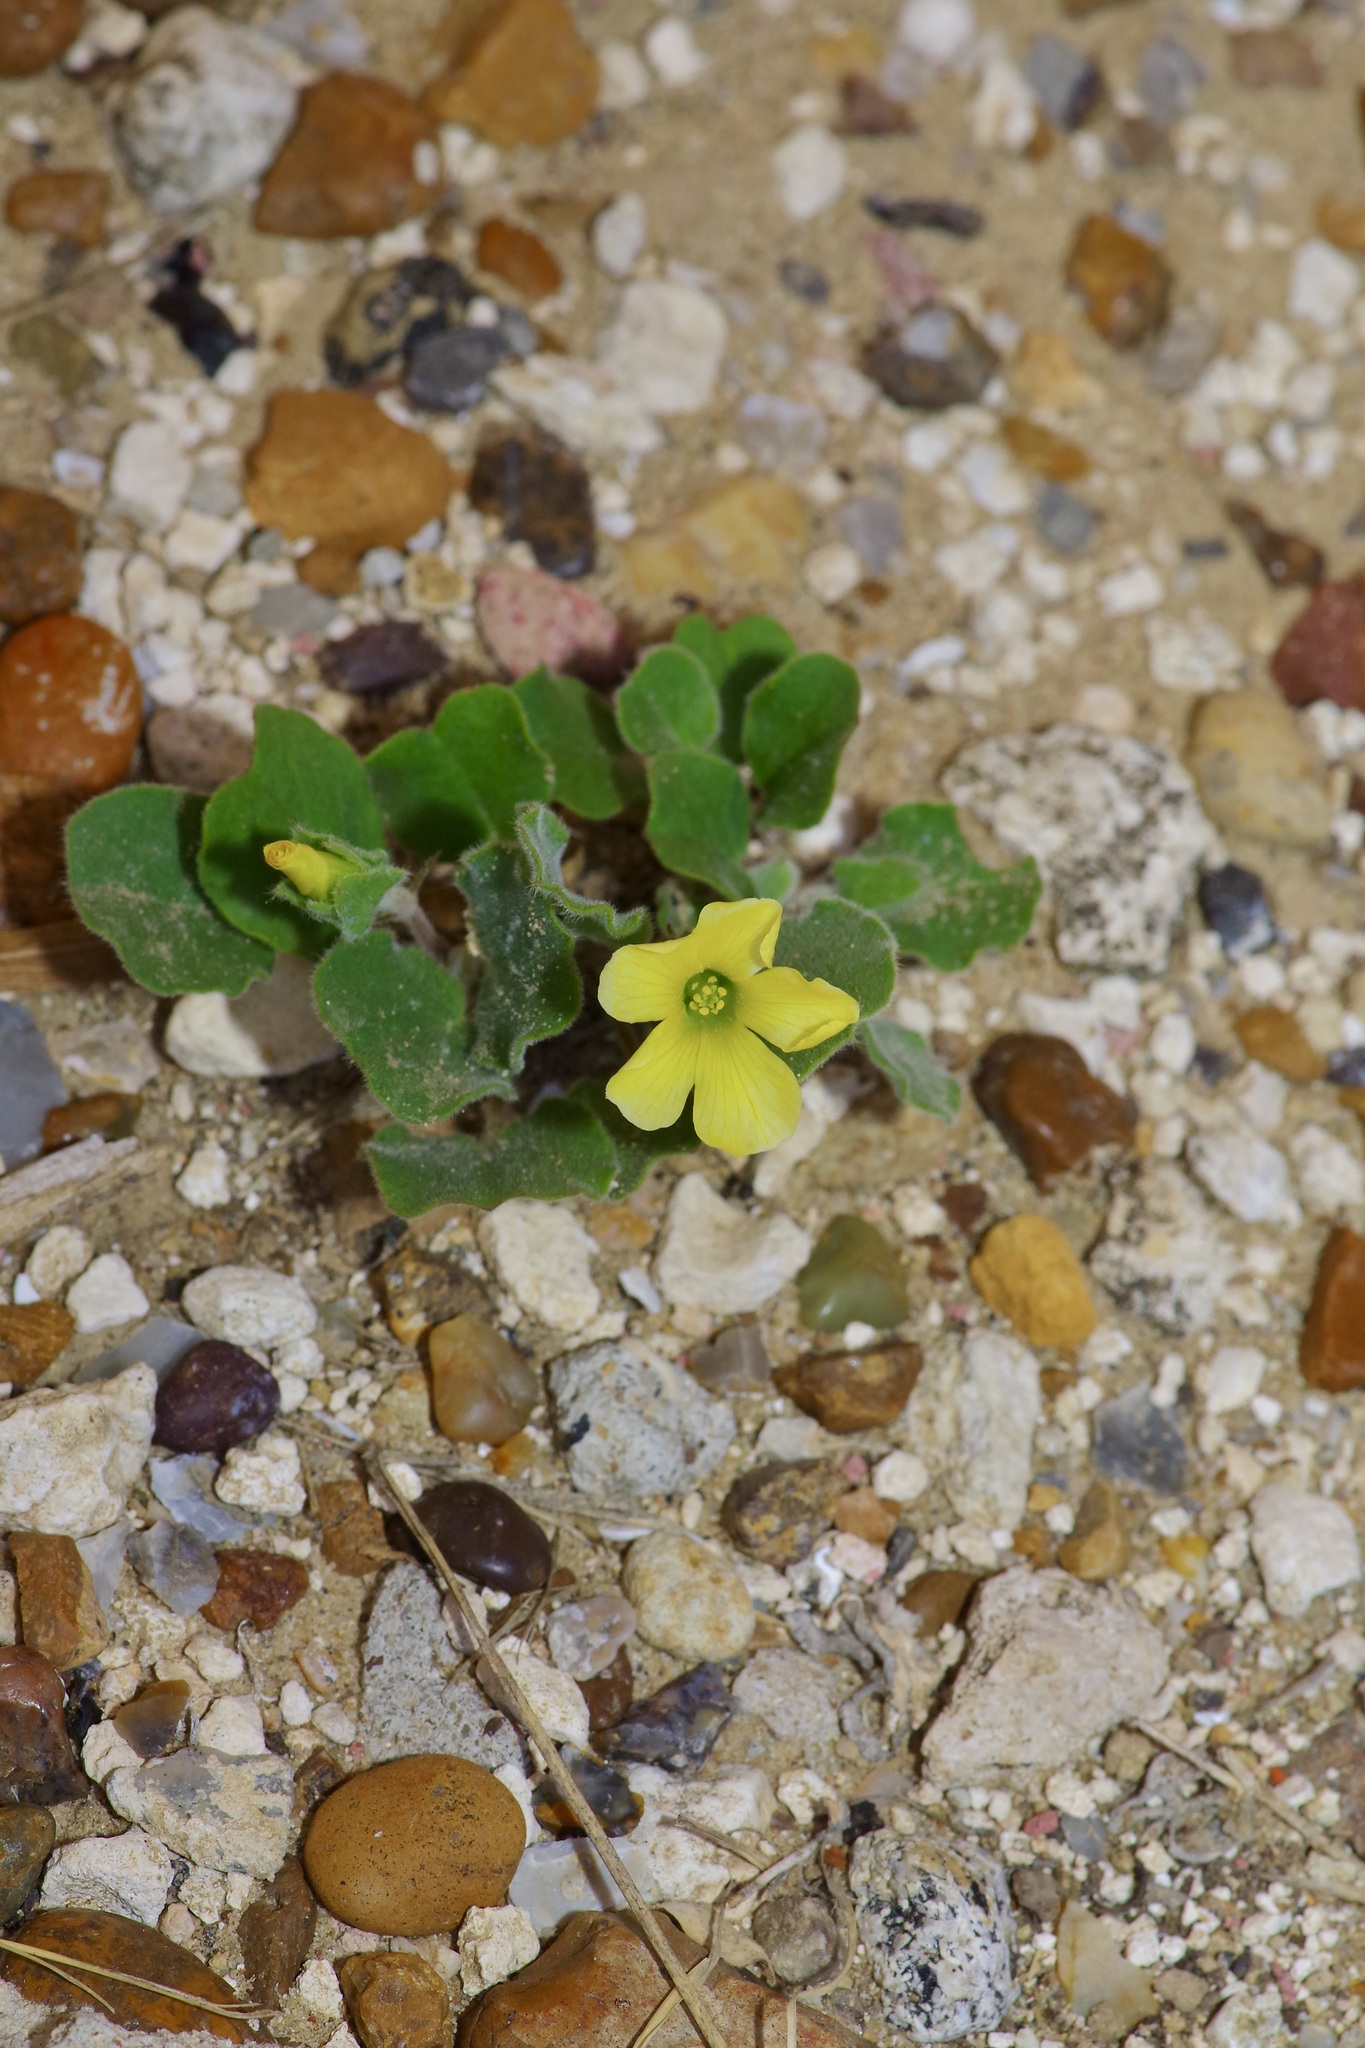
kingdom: Plantae
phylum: Tracheophyta
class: Magnoliopsida
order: Oxalidales
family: Oxalidaceae
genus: Oxalis
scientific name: Oxalis dichondrifolia
